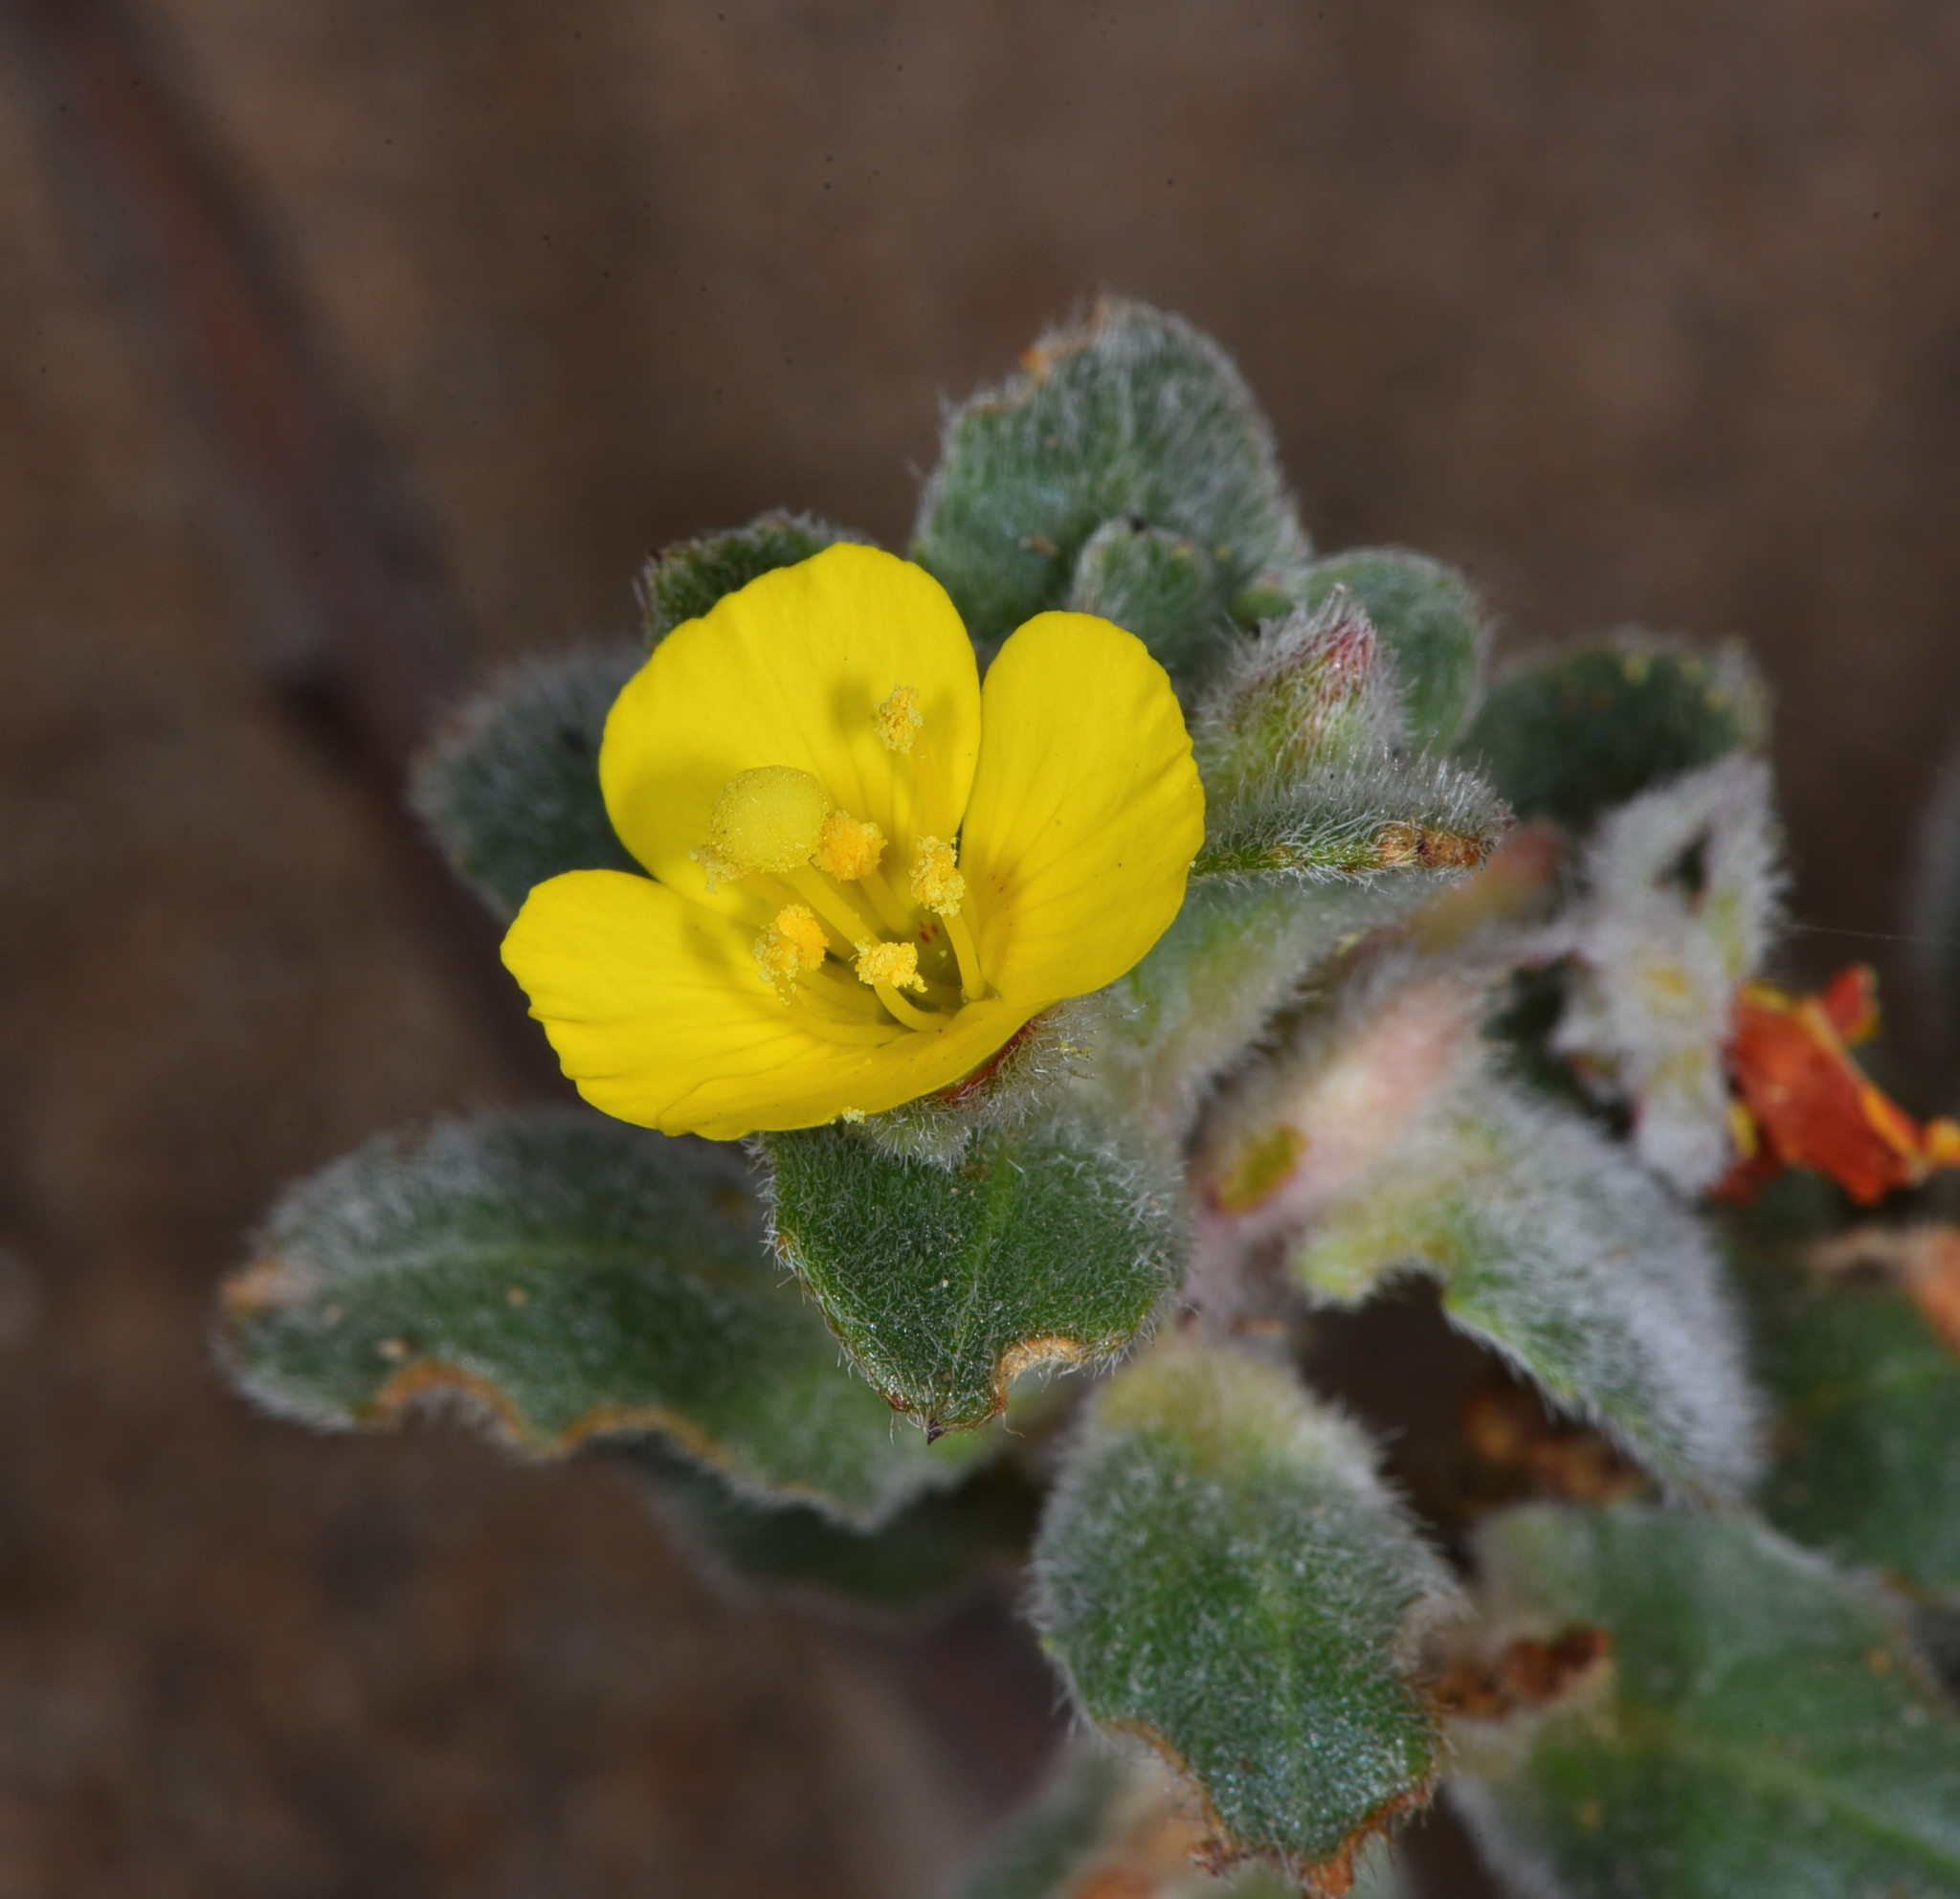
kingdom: Plantae
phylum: Tracheophyta
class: Magnoliopsida
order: Myrtales
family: Onagraceae
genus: Camissoniopsis
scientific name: Camissoniopsis cheiranthifolia
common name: Beach suncup
